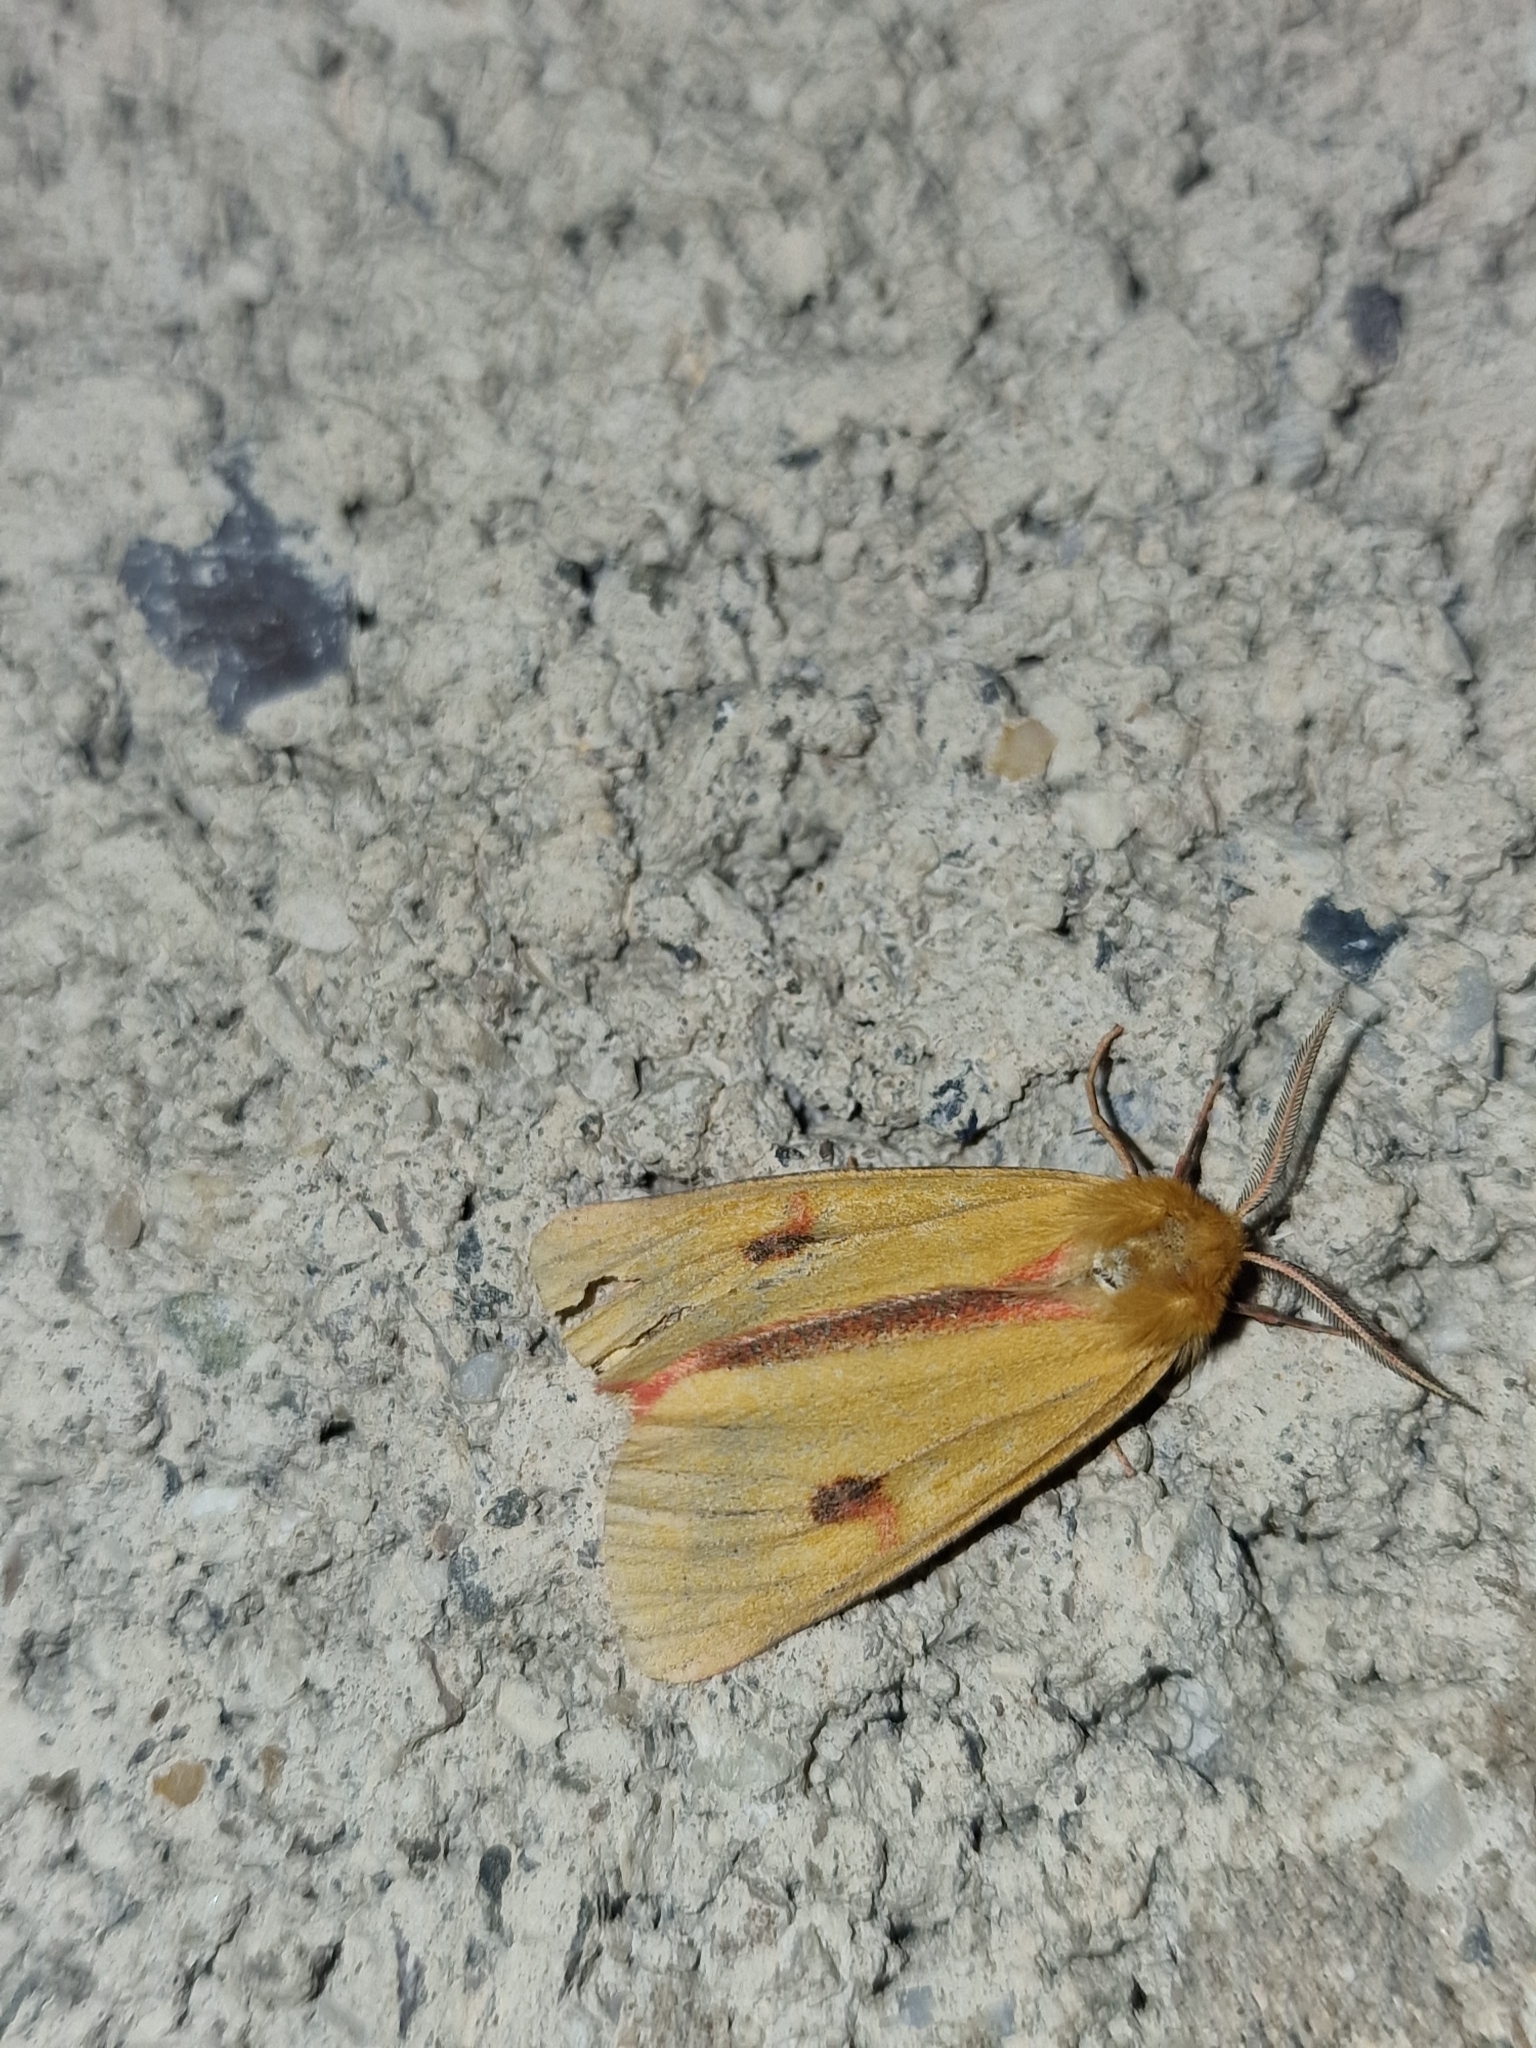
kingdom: Animalia
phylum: Arthropoda
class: Insecta
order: Lepidoptera
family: Erebidae
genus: Diacrisia
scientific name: Diacrisia sannio
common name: Clouded buff
